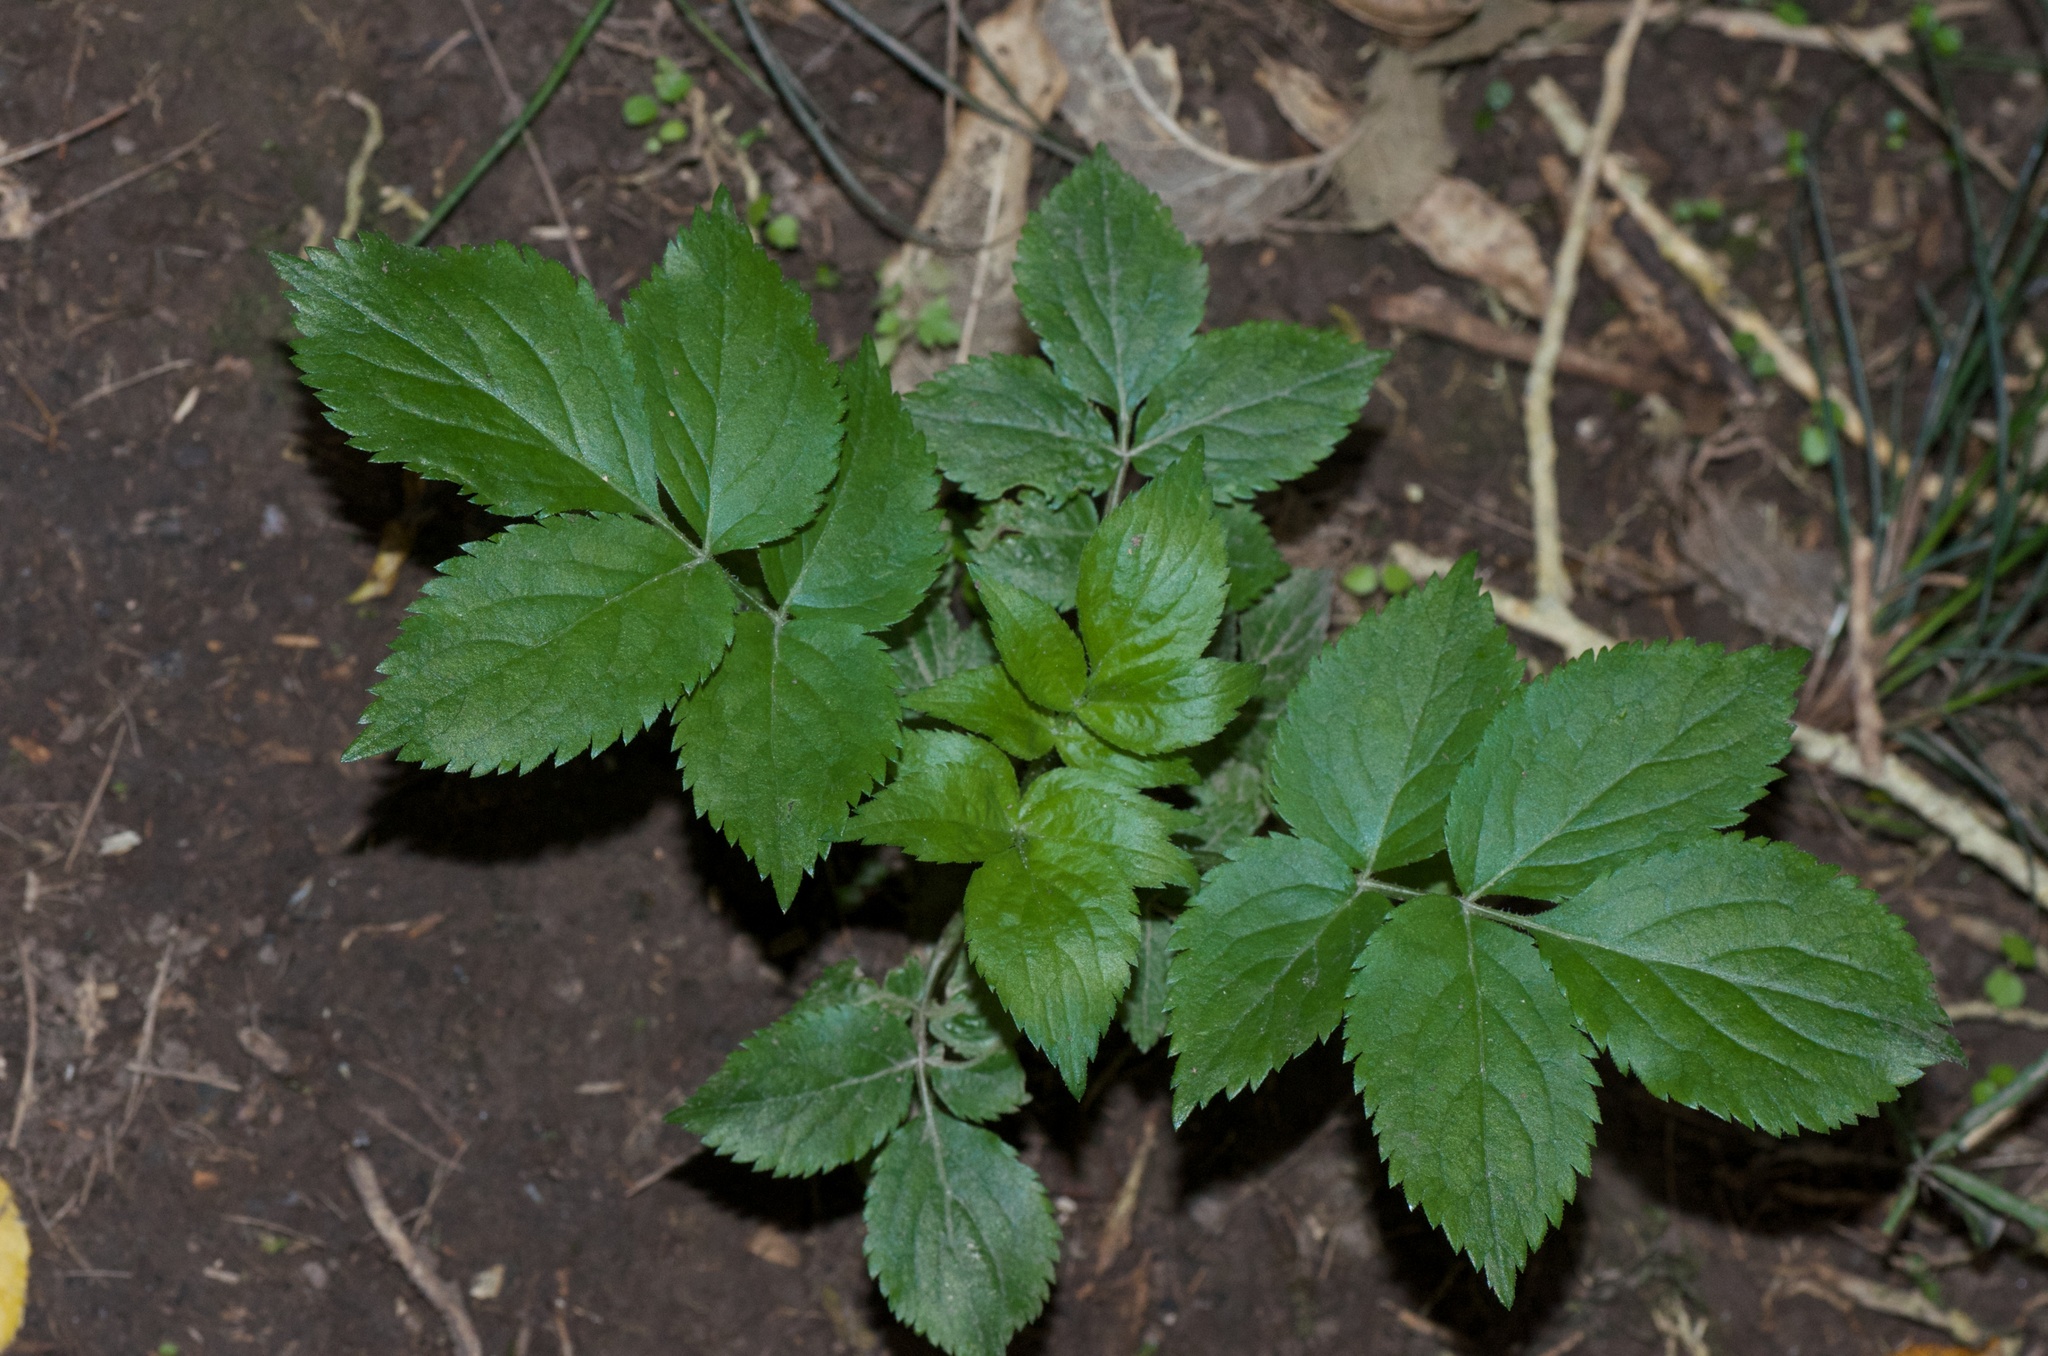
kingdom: Plantae
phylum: Tracheophyta
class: Magnoliopsida
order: Dipsacales
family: Viburnaceae
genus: Sambucus
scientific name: Sambucus nigra
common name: Elder
